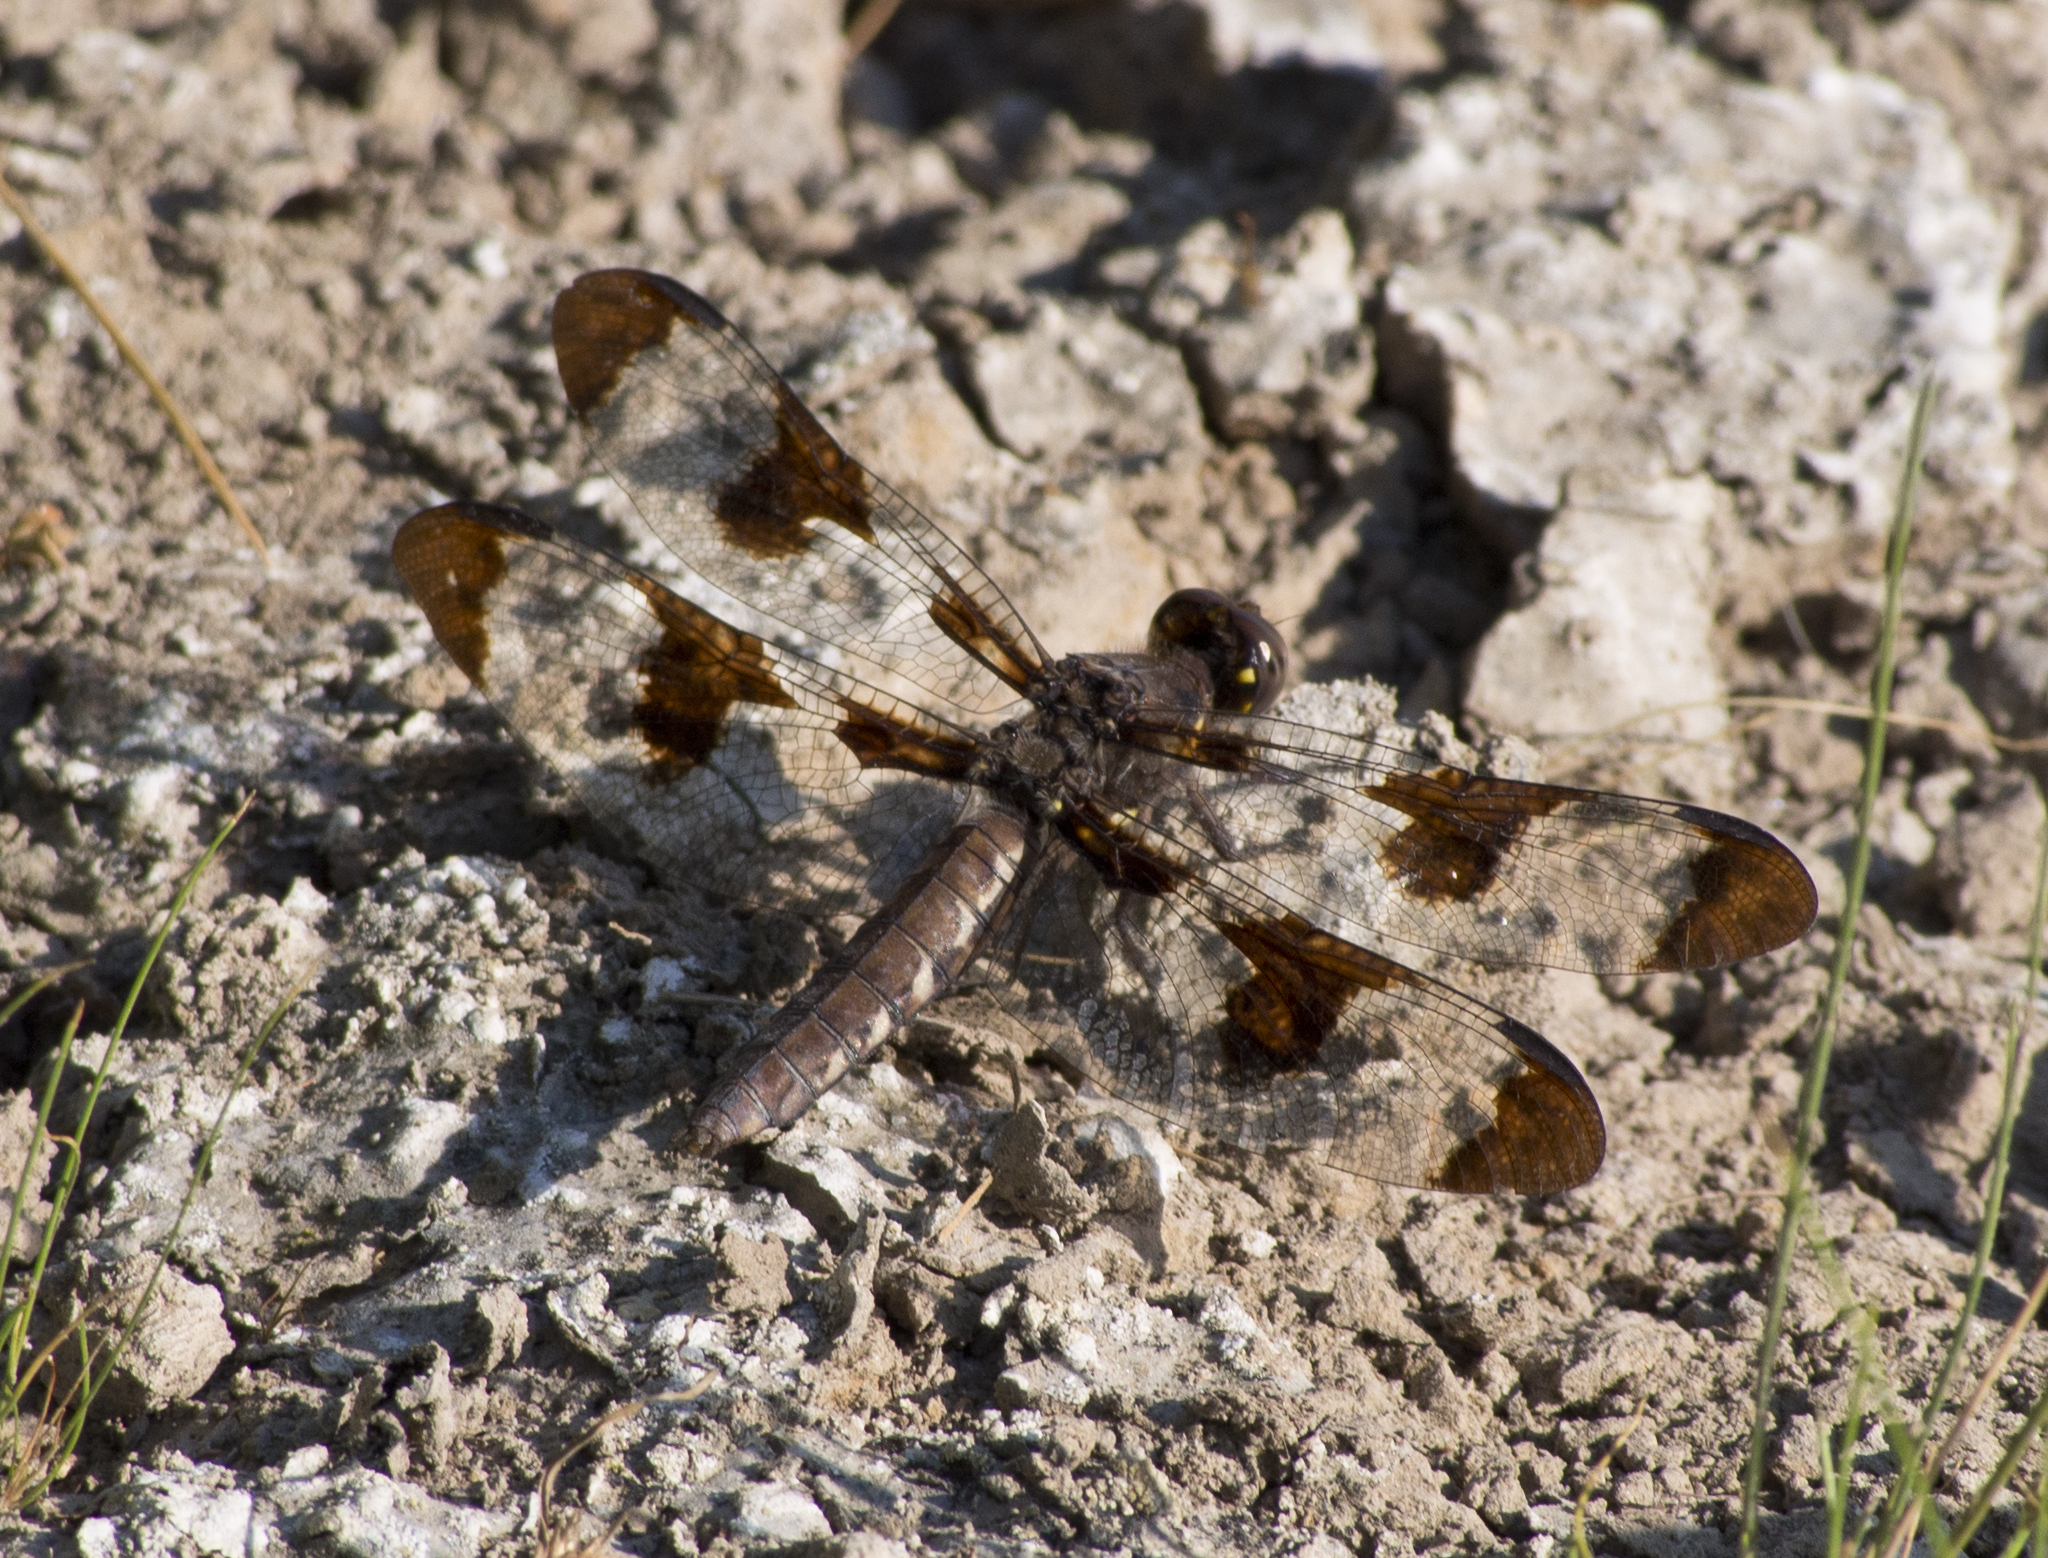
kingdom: Animalia
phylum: Arthropoda
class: Insecta
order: Odonata
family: Libellulidae
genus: Plathemis
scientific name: Plathemis lydia
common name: Common whitetail
